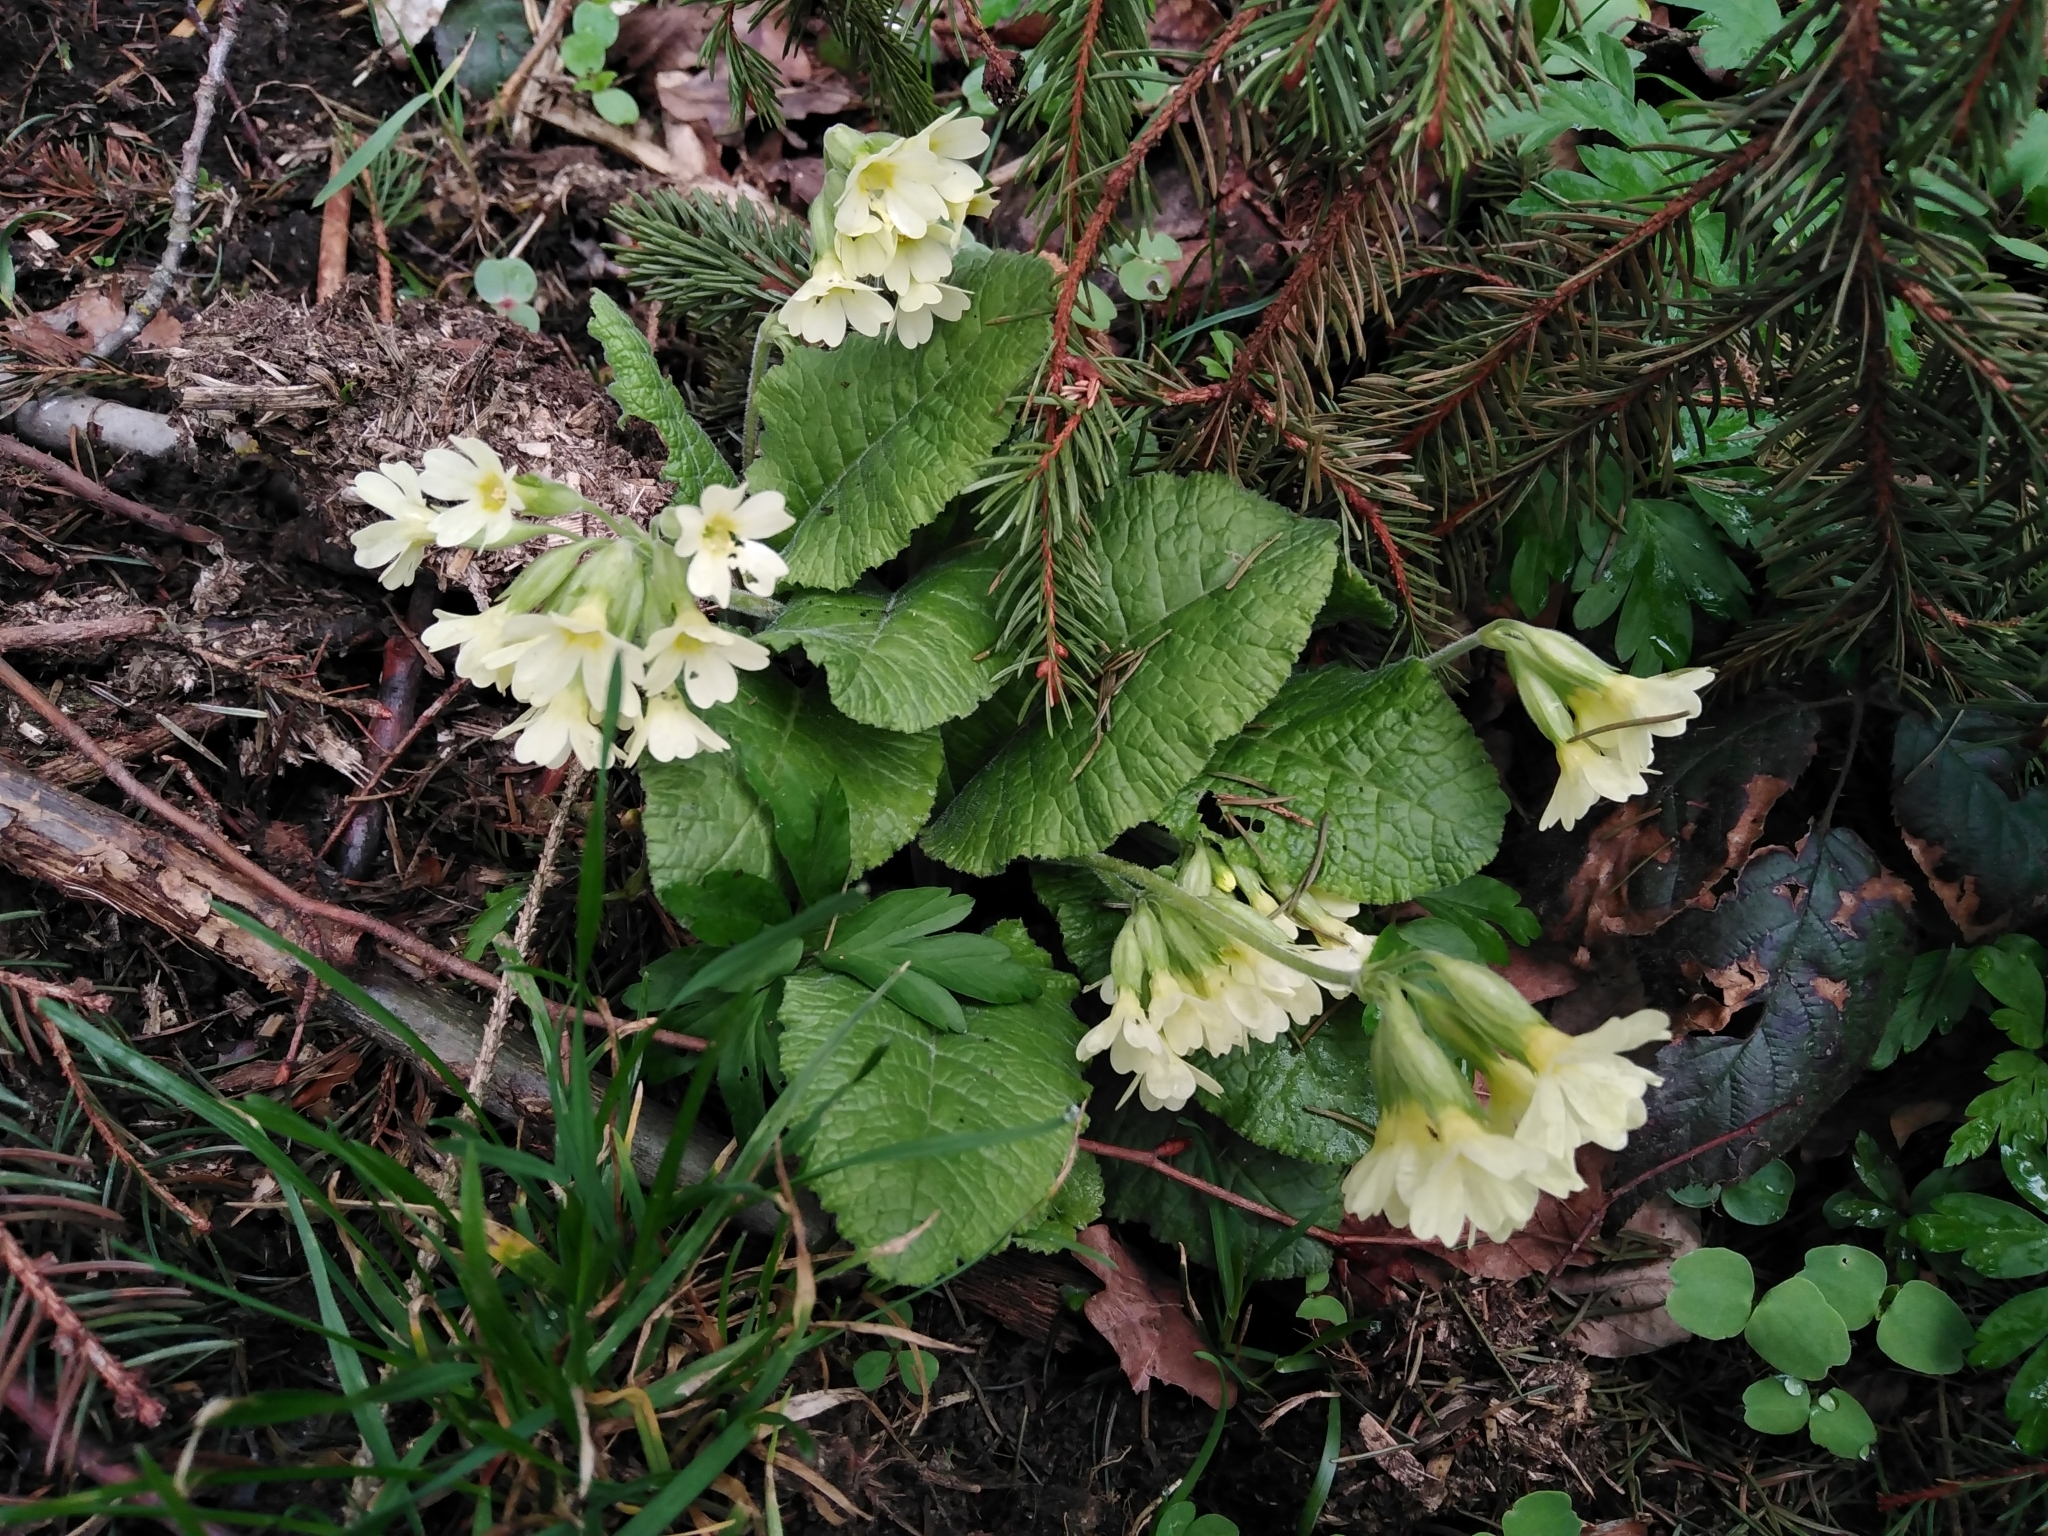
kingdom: Plantae
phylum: Tracheophyta
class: Magnoliopsida
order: Ericales
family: Primulaceae
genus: Primula
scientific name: Primula elatior
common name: Oxlip
